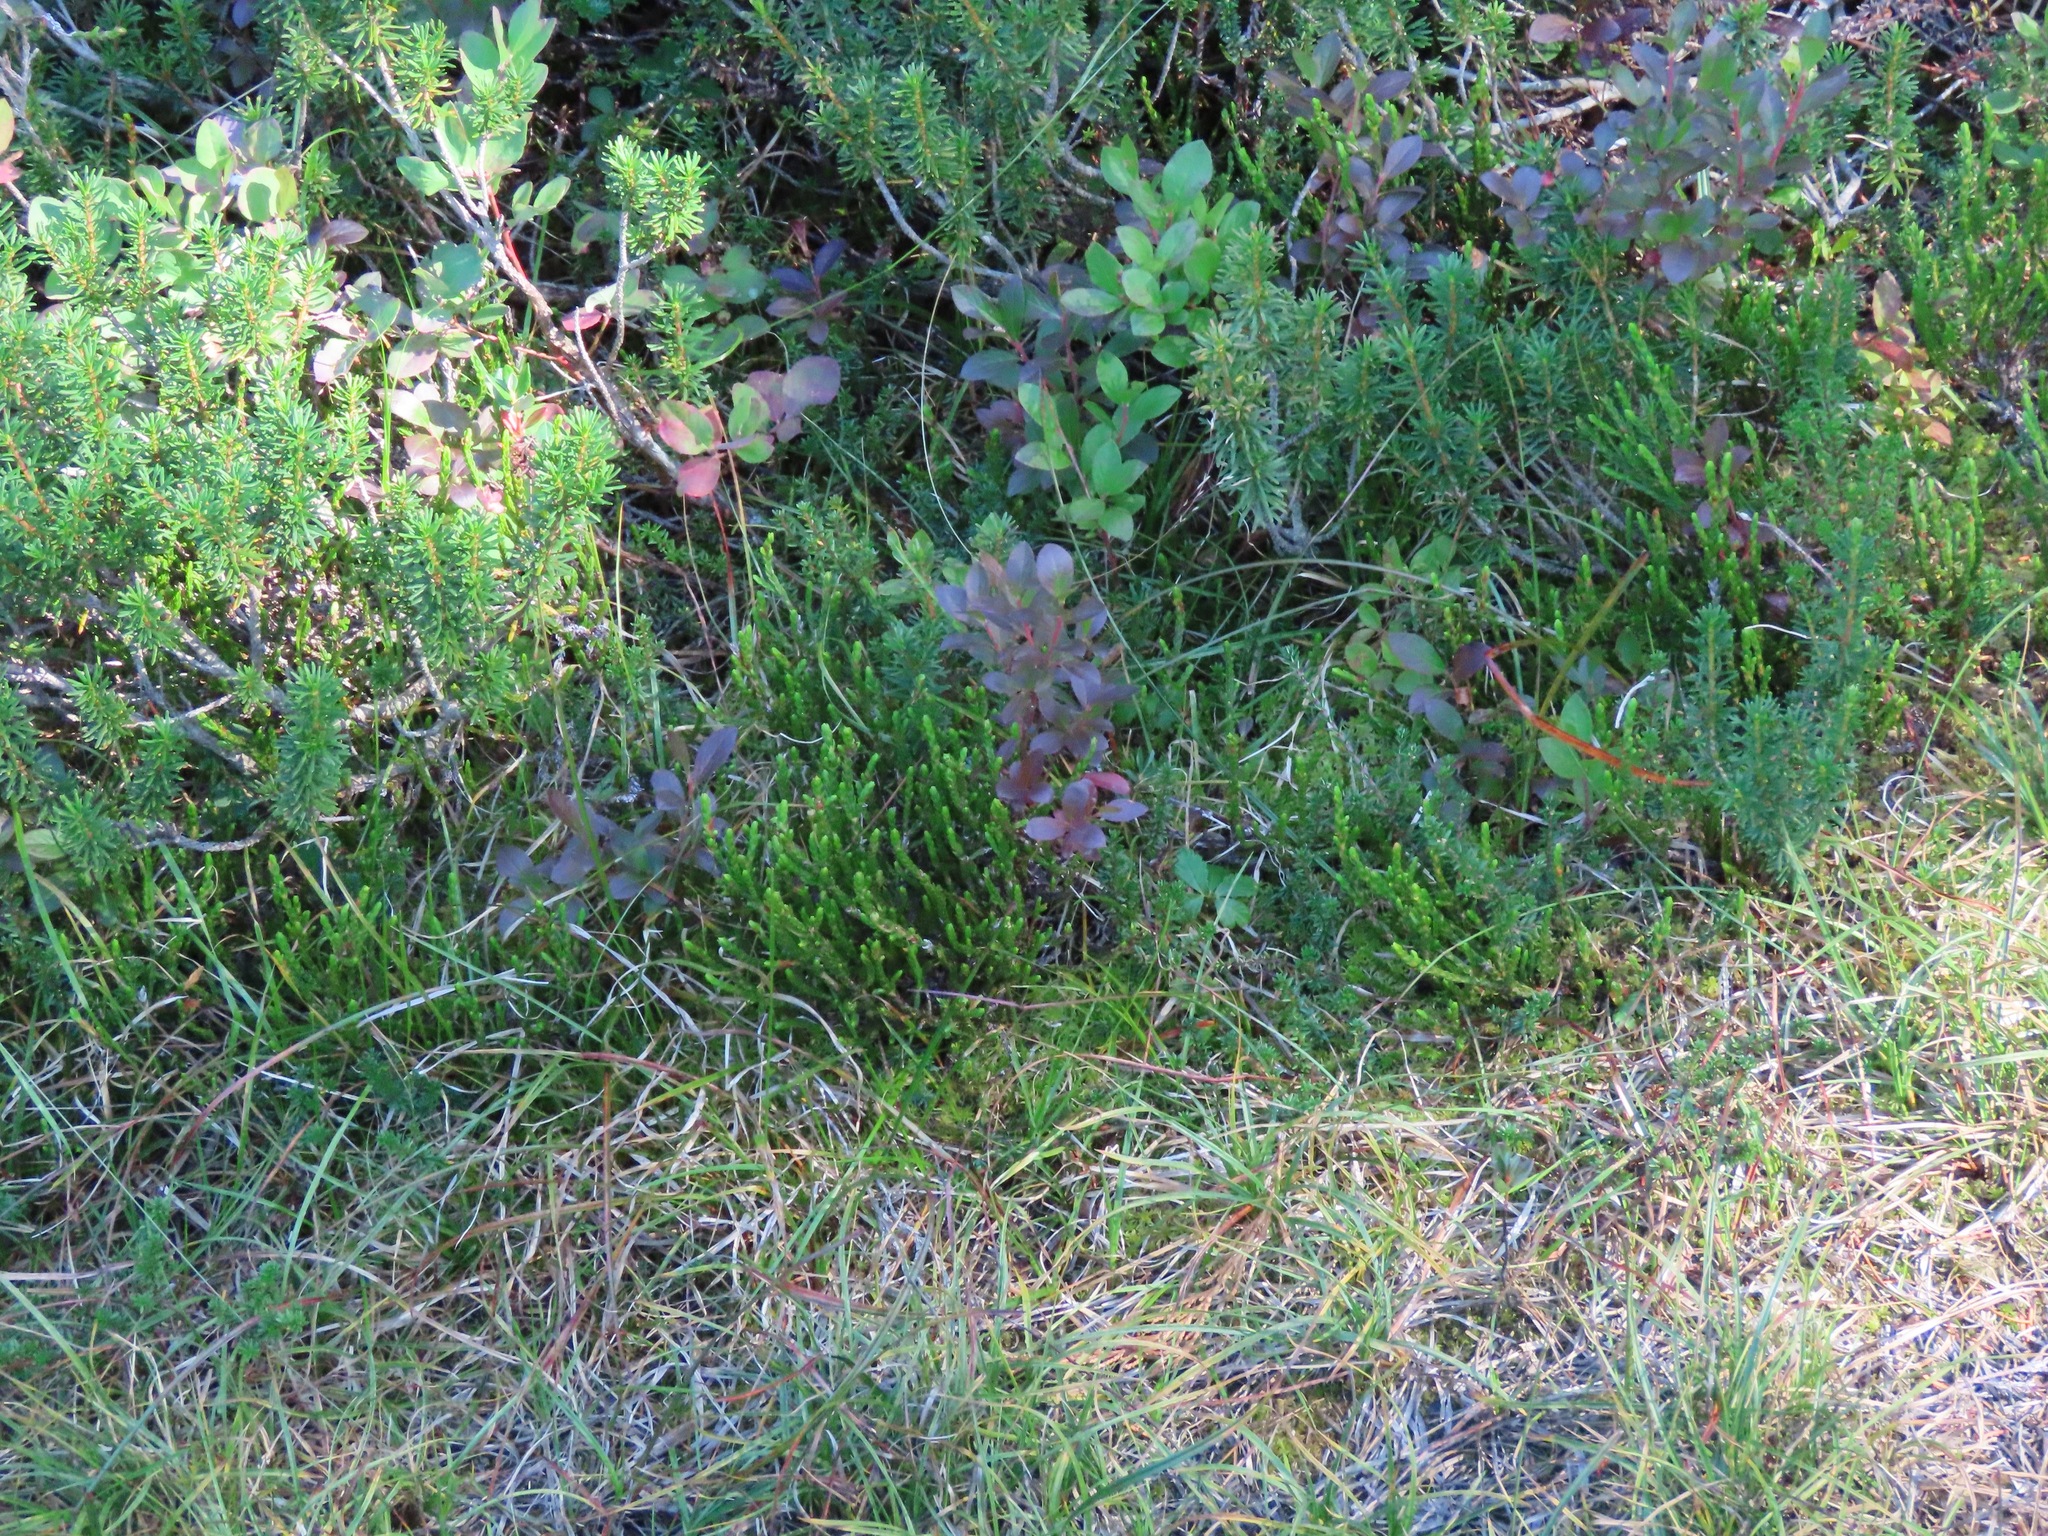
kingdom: Plantae
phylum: Tracheophyta
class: Magnoliopsida
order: Ericales
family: Ericaceae
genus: Cassiope
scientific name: Cassiope mertensiana
